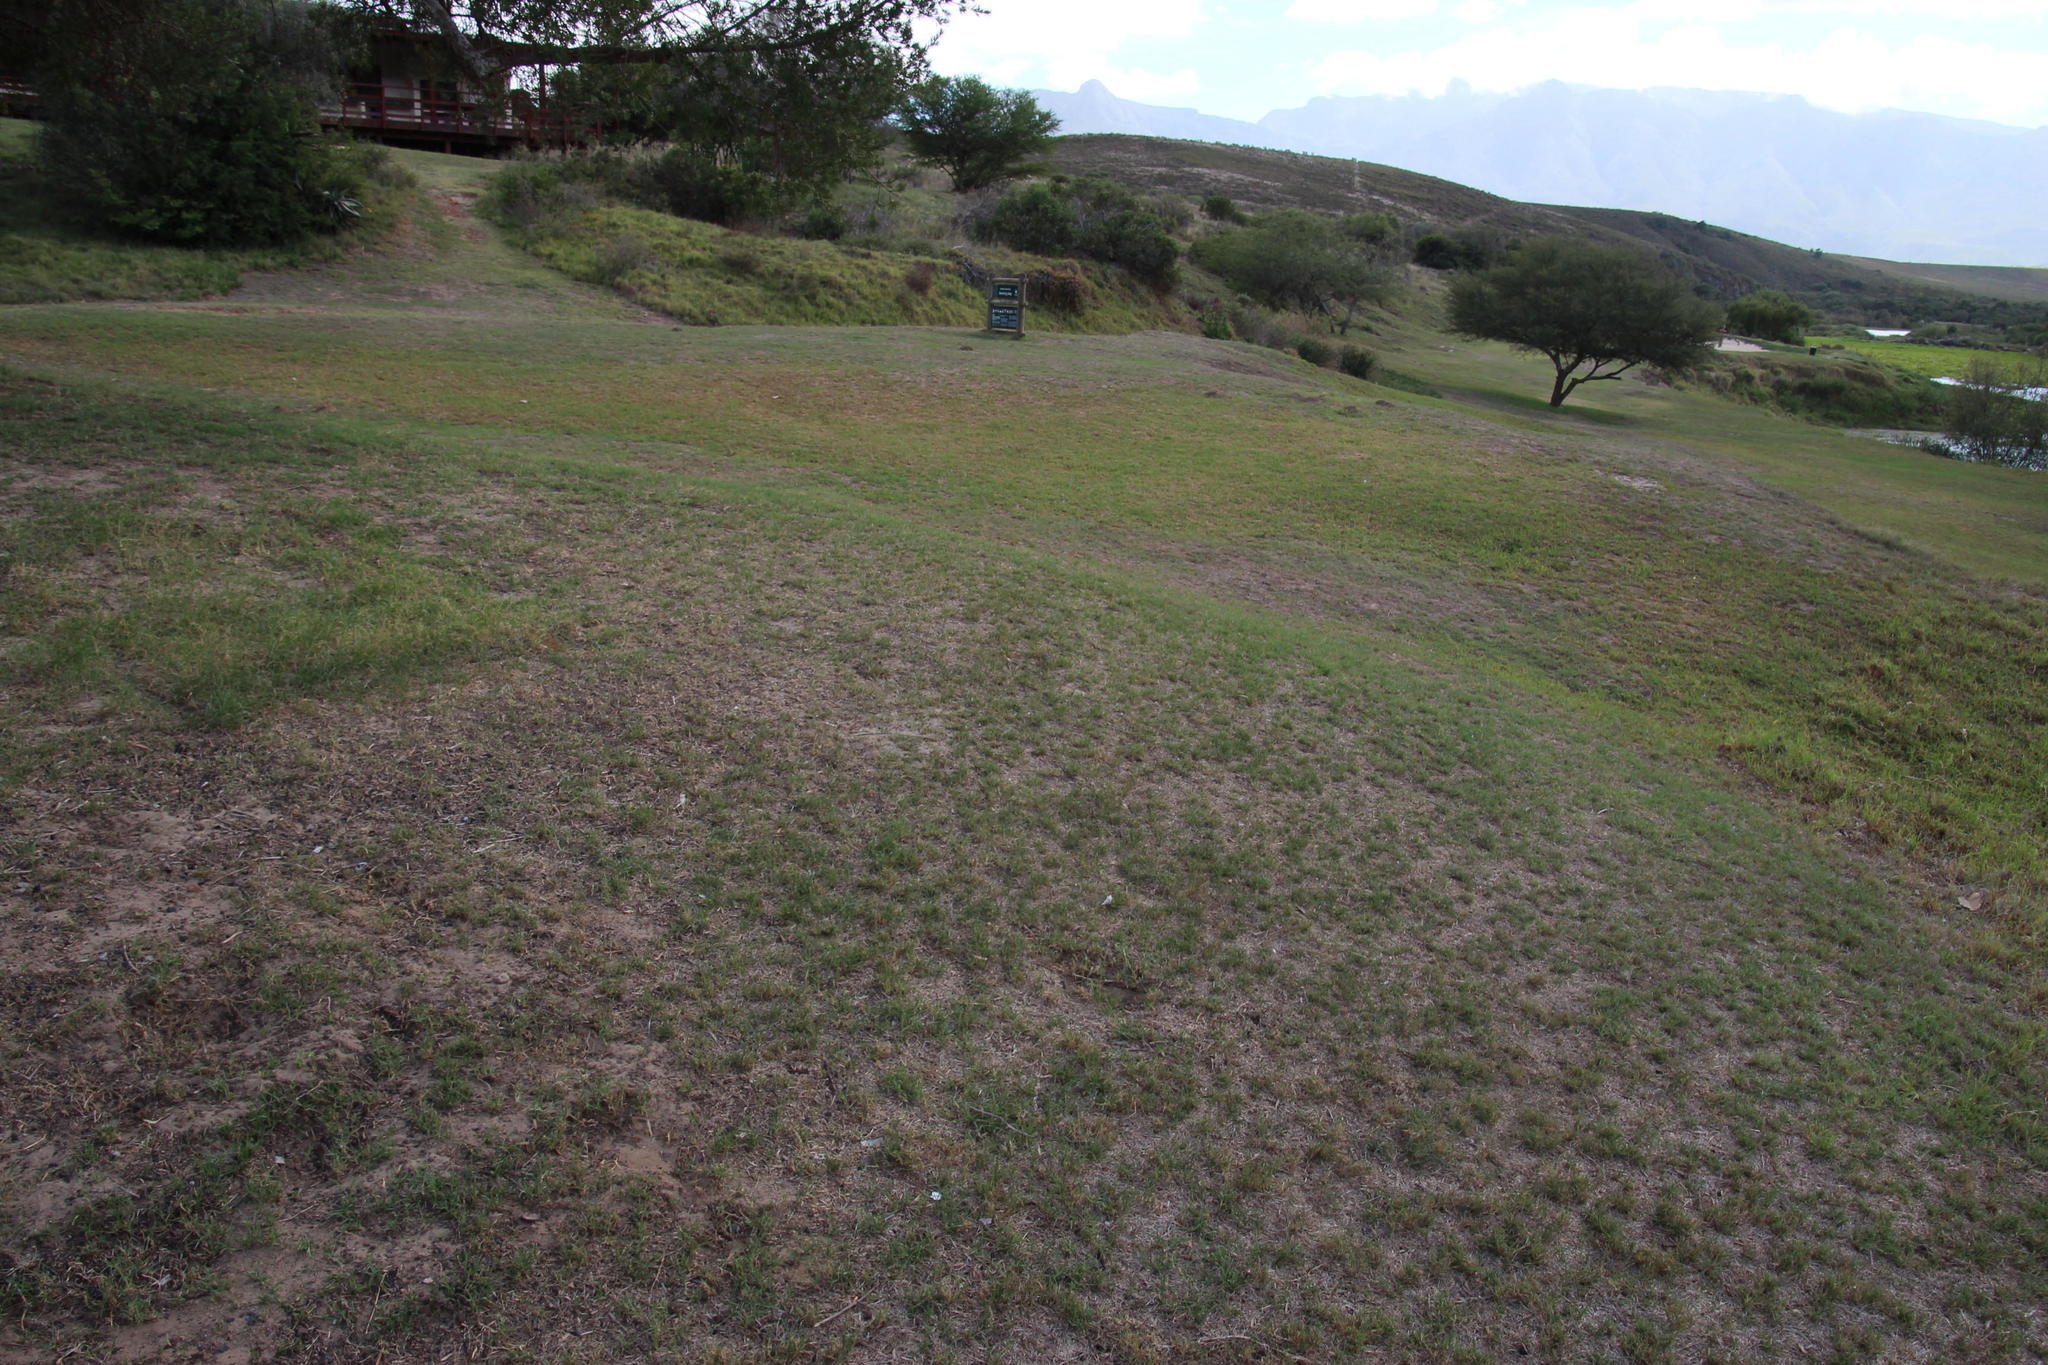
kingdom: Plantae
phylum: Tracheophyta
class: Liliopsida
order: Poales
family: Poaceae
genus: Cynodon
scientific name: Cynodon dactylon
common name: Bermuda grass
